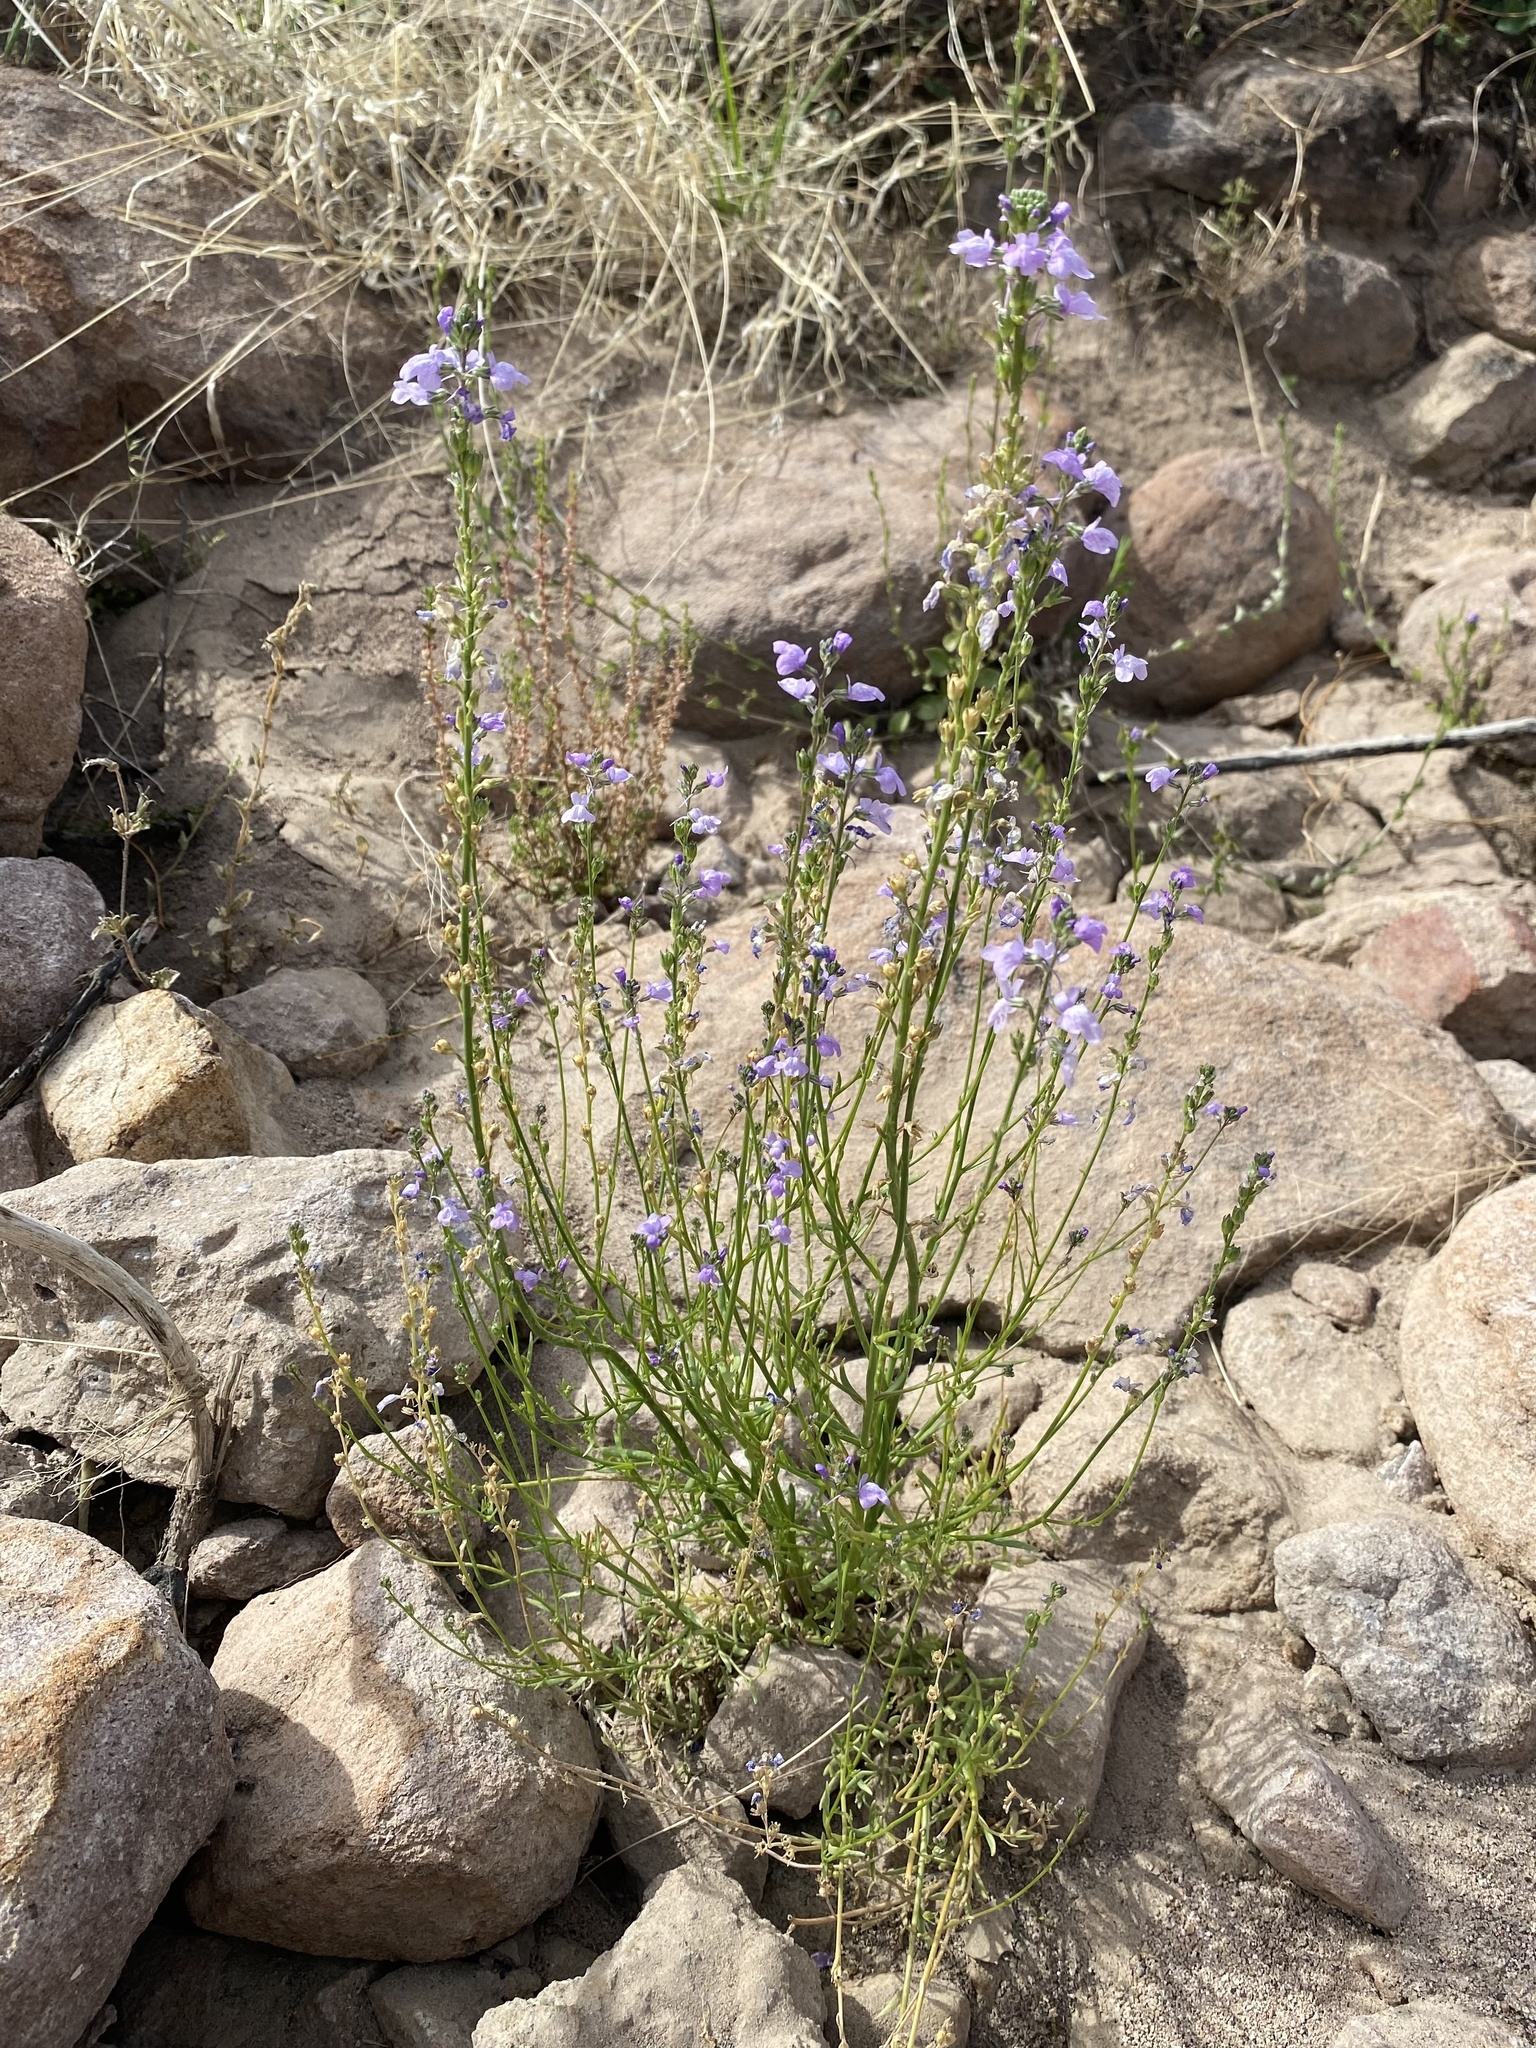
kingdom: Plantae
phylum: Tracheophyta
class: Magnoliopsida
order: Lamiales
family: Plantaginaceae
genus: Nuttallanthus
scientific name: Nuttallanthus texanus
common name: Texas toadflax
